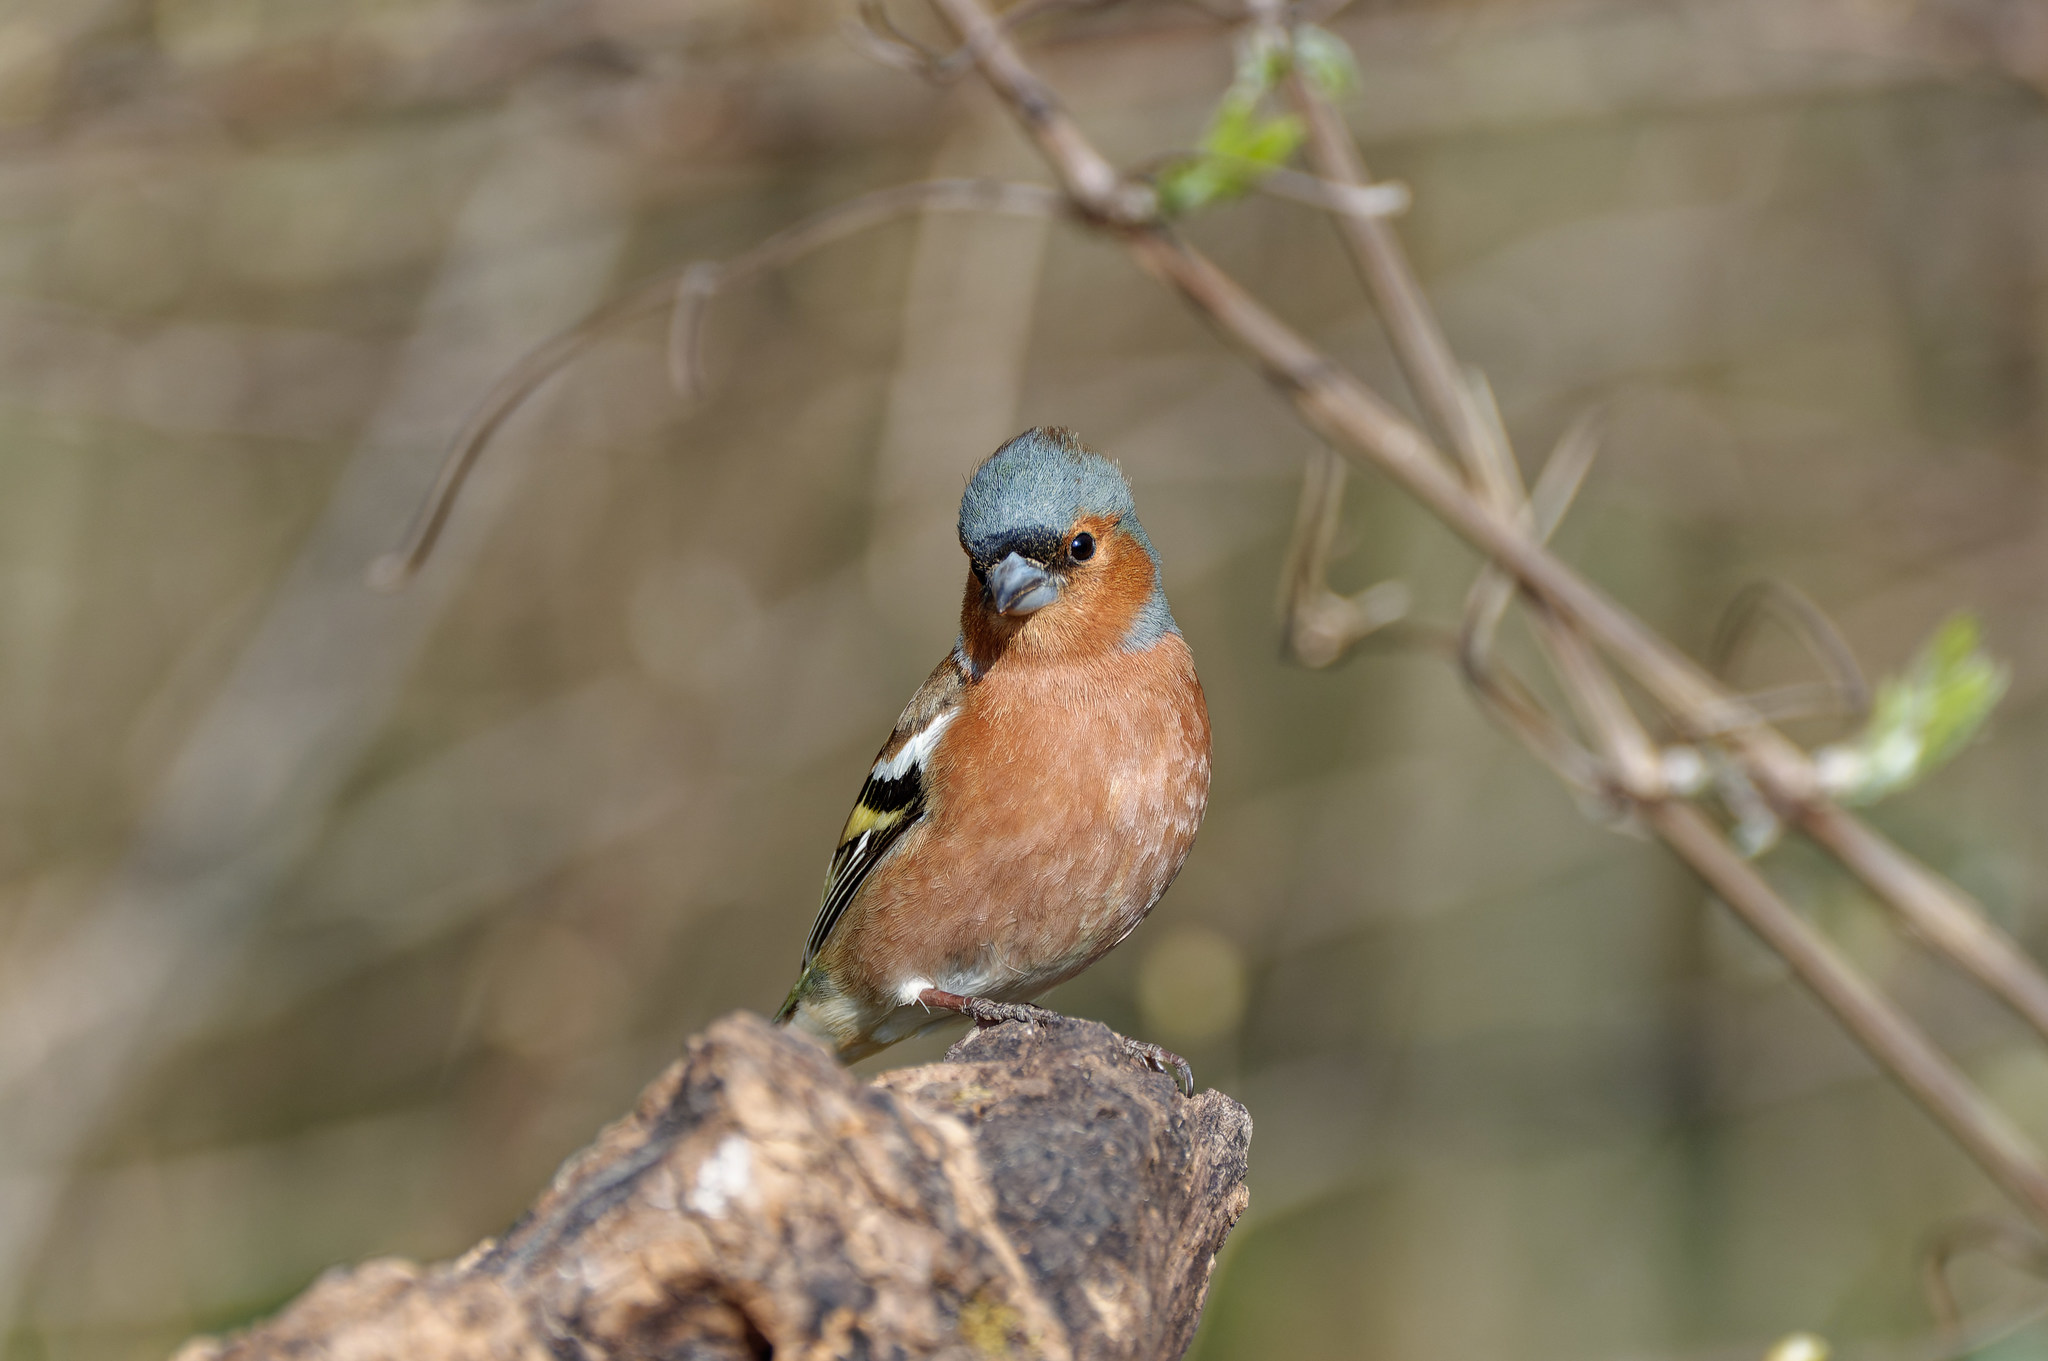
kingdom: Animalia
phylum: Chordata
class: Aves
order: Passeriformes
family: Fringillidae
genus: Fringilla
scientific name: Fringilla coelebs
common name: Common chaffinch
